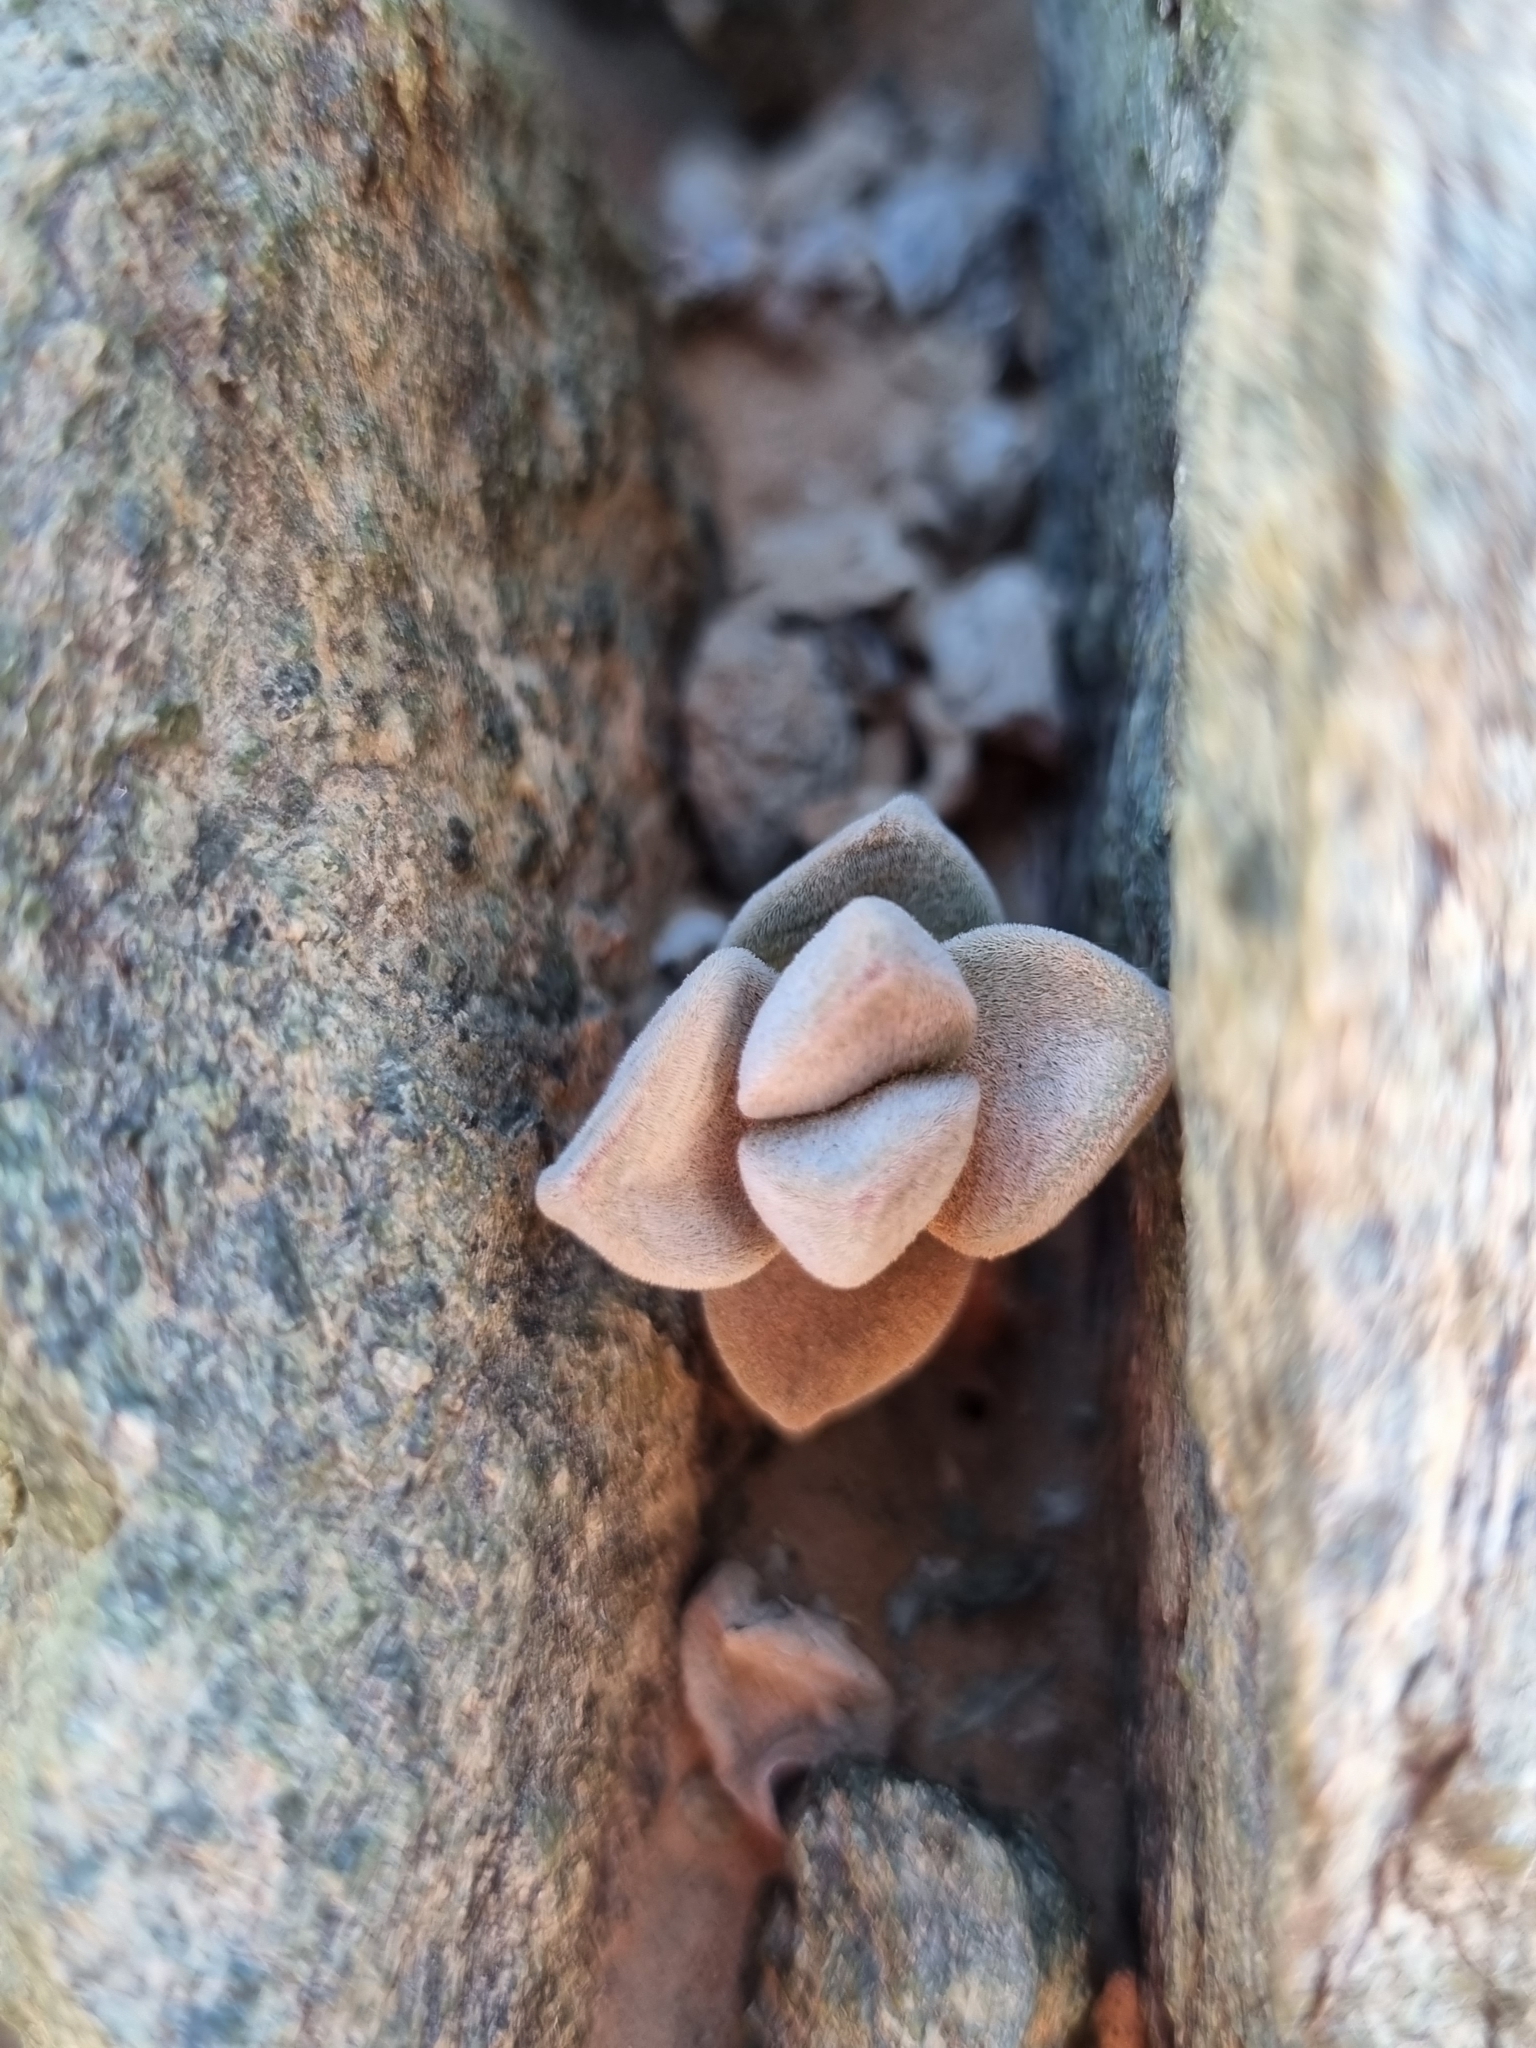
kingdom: Plantae
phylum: Tracheophyta
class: Magnoliopsida
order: Saxifragales
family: Crassulaceae
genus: Crassula
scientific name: Crassula sericea
